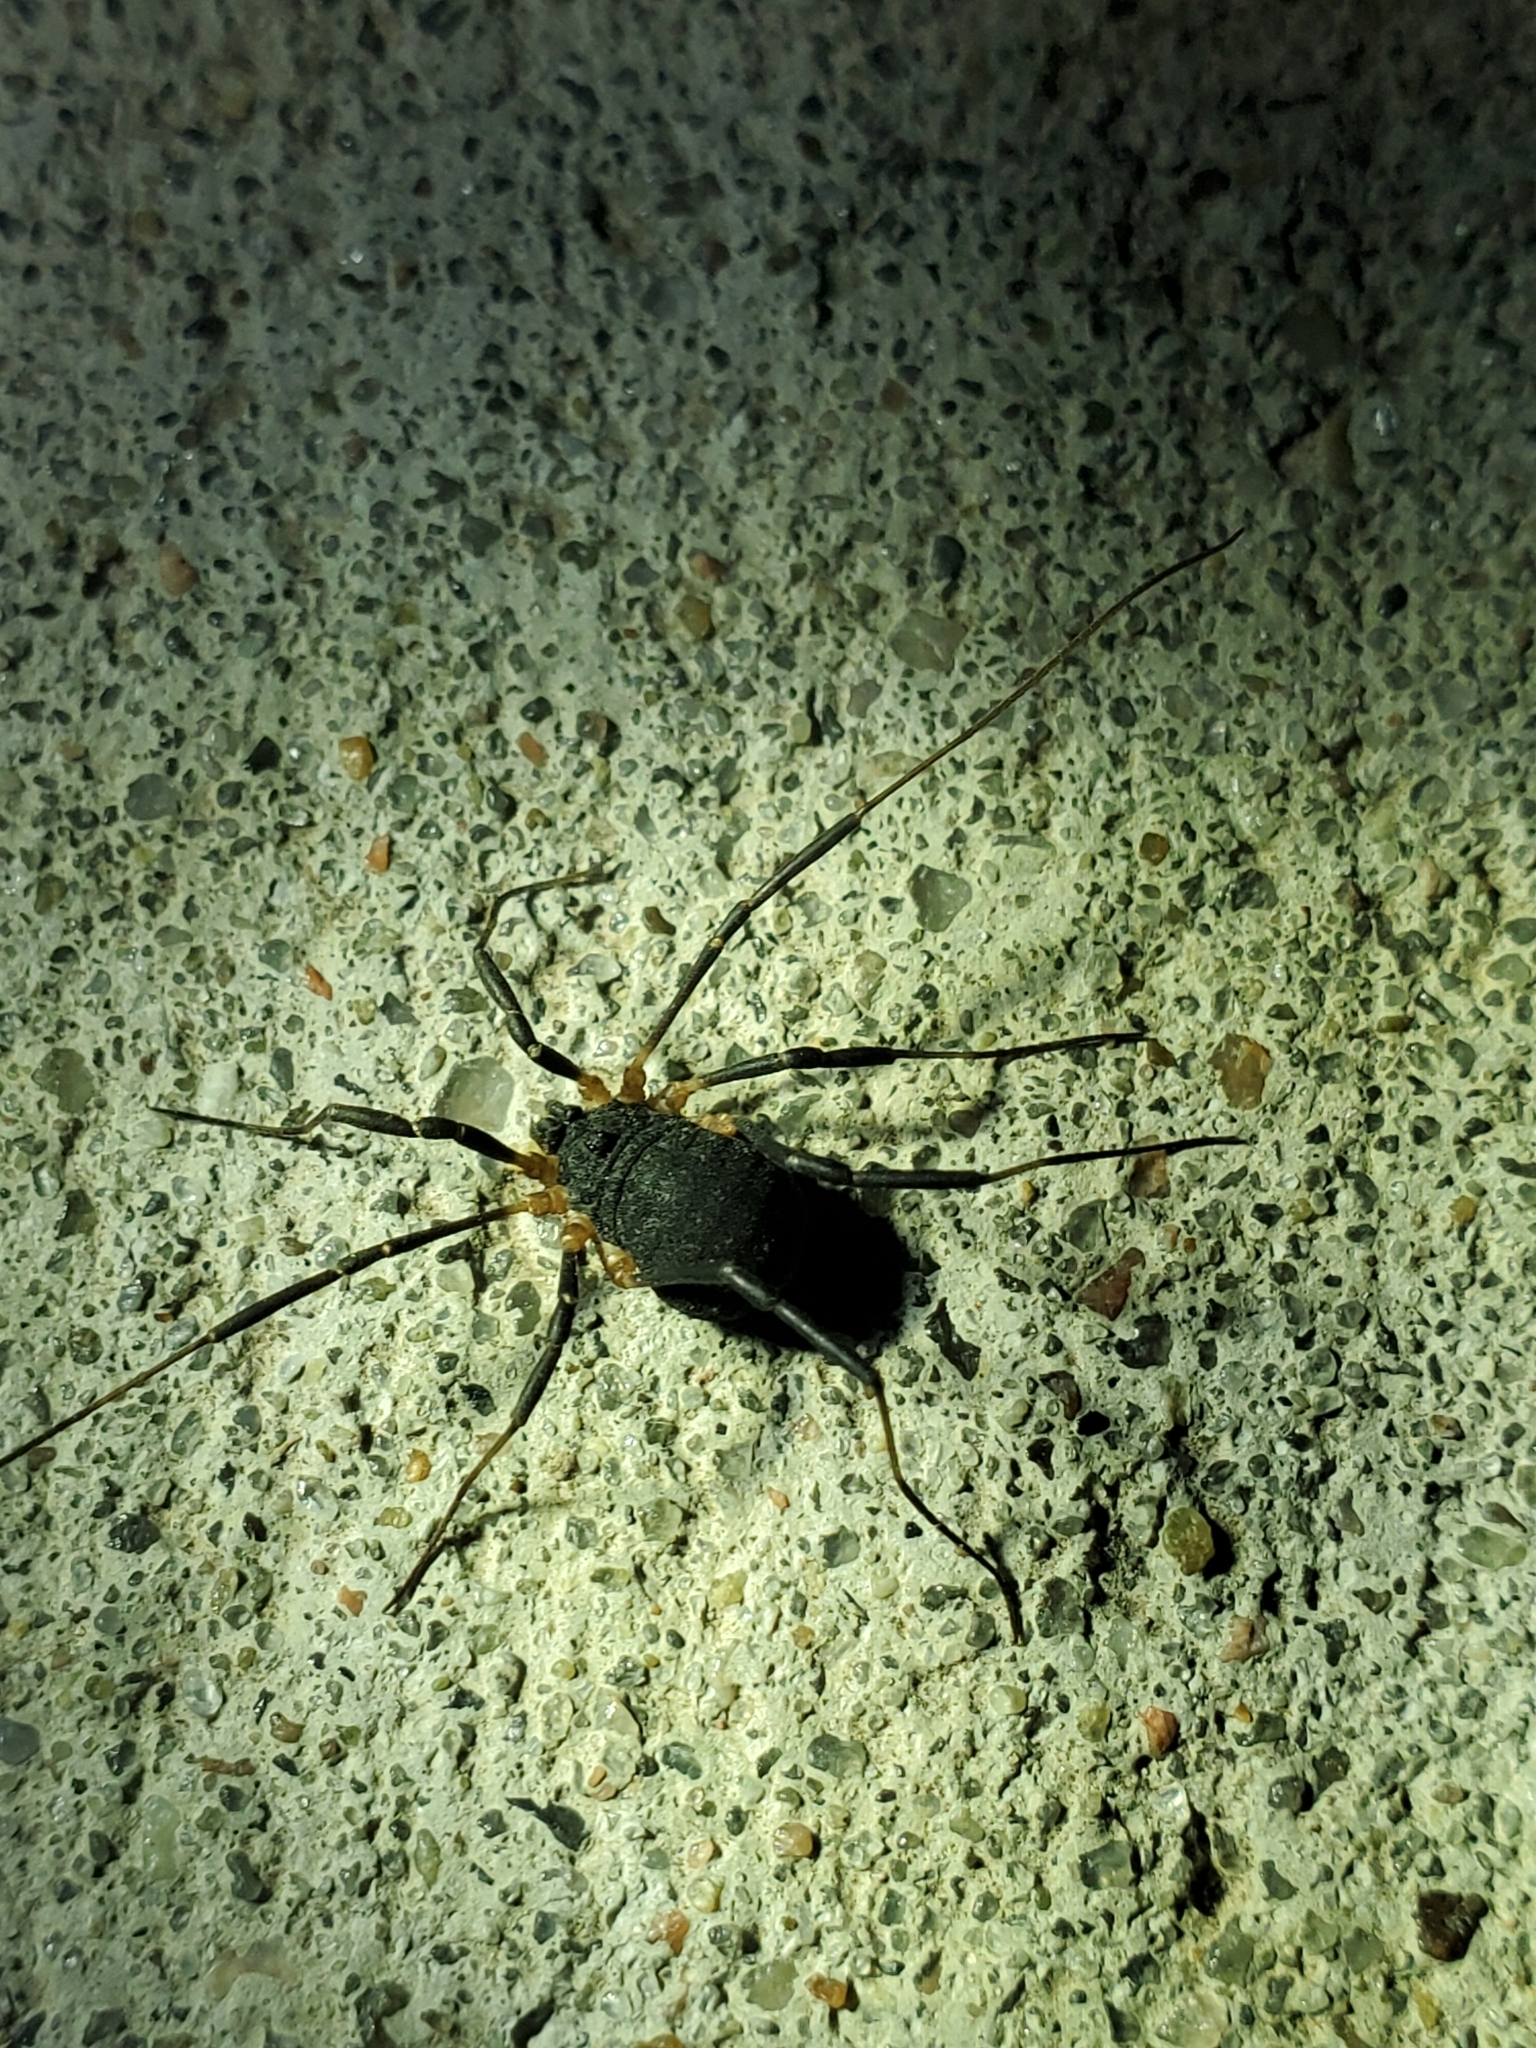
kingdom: Animalia
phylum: Arthropoda
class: Arachnida
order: Opiliones
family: Sclerosomatidae
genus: Eumesosoma
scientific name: Eumesosoma roeweri
